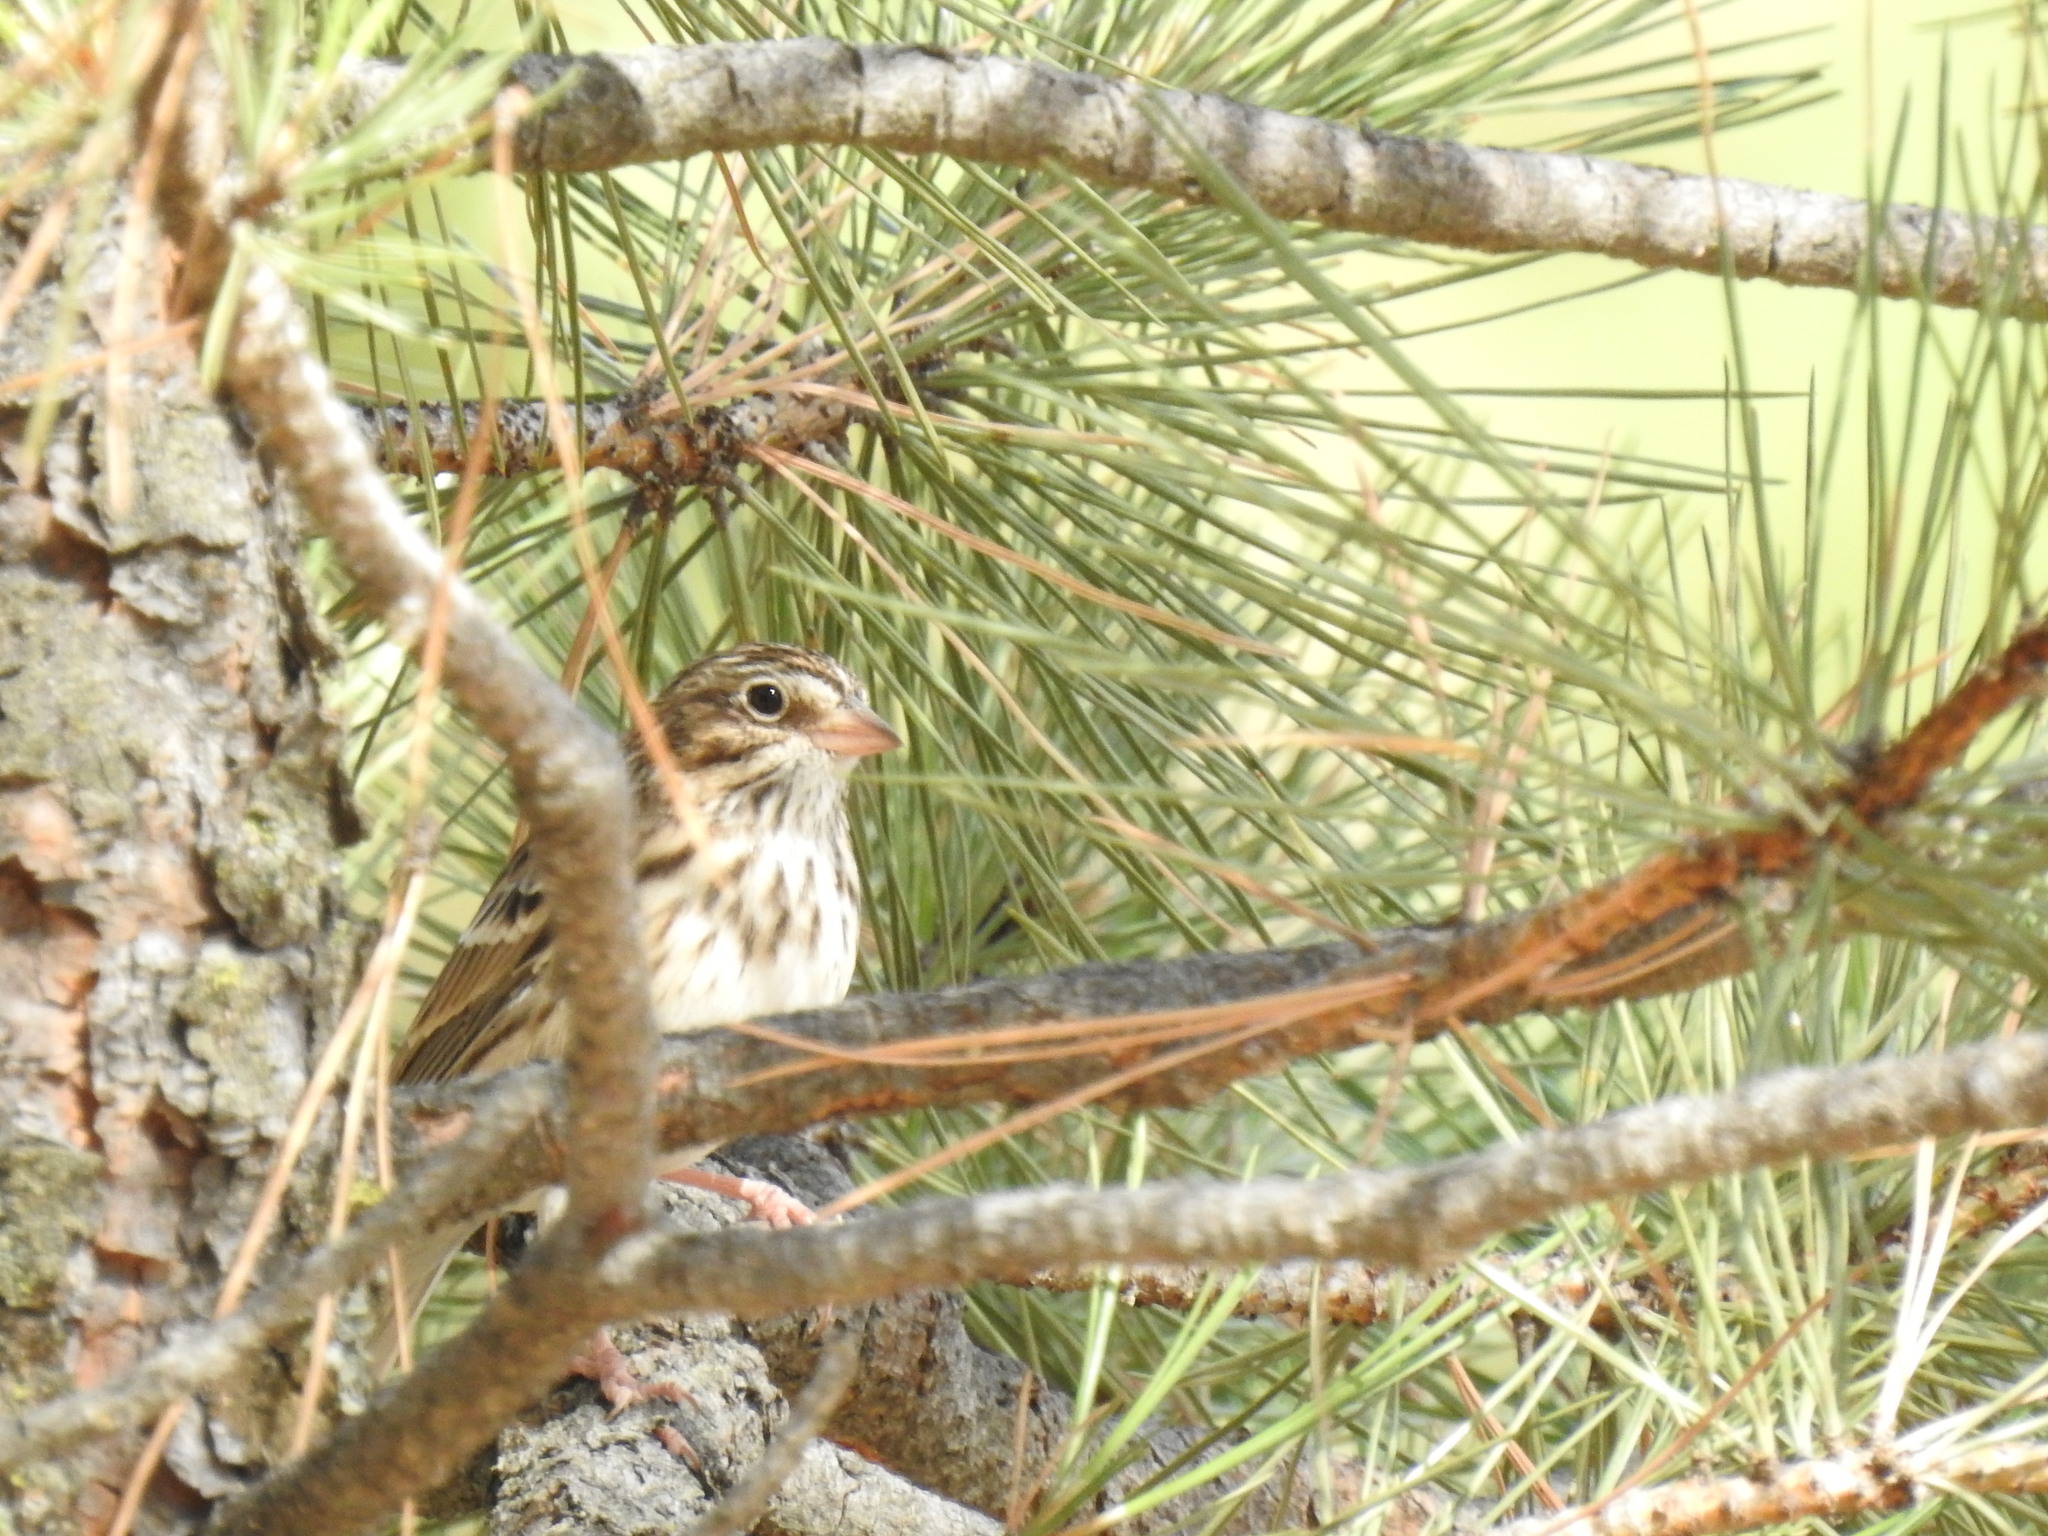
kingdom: Animalia
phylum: Chordata
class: Aves
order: Passeriformes
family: Passerellidae
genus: Pooecetes
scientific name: Pooecetes gramineus
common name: Vesper sparrow
